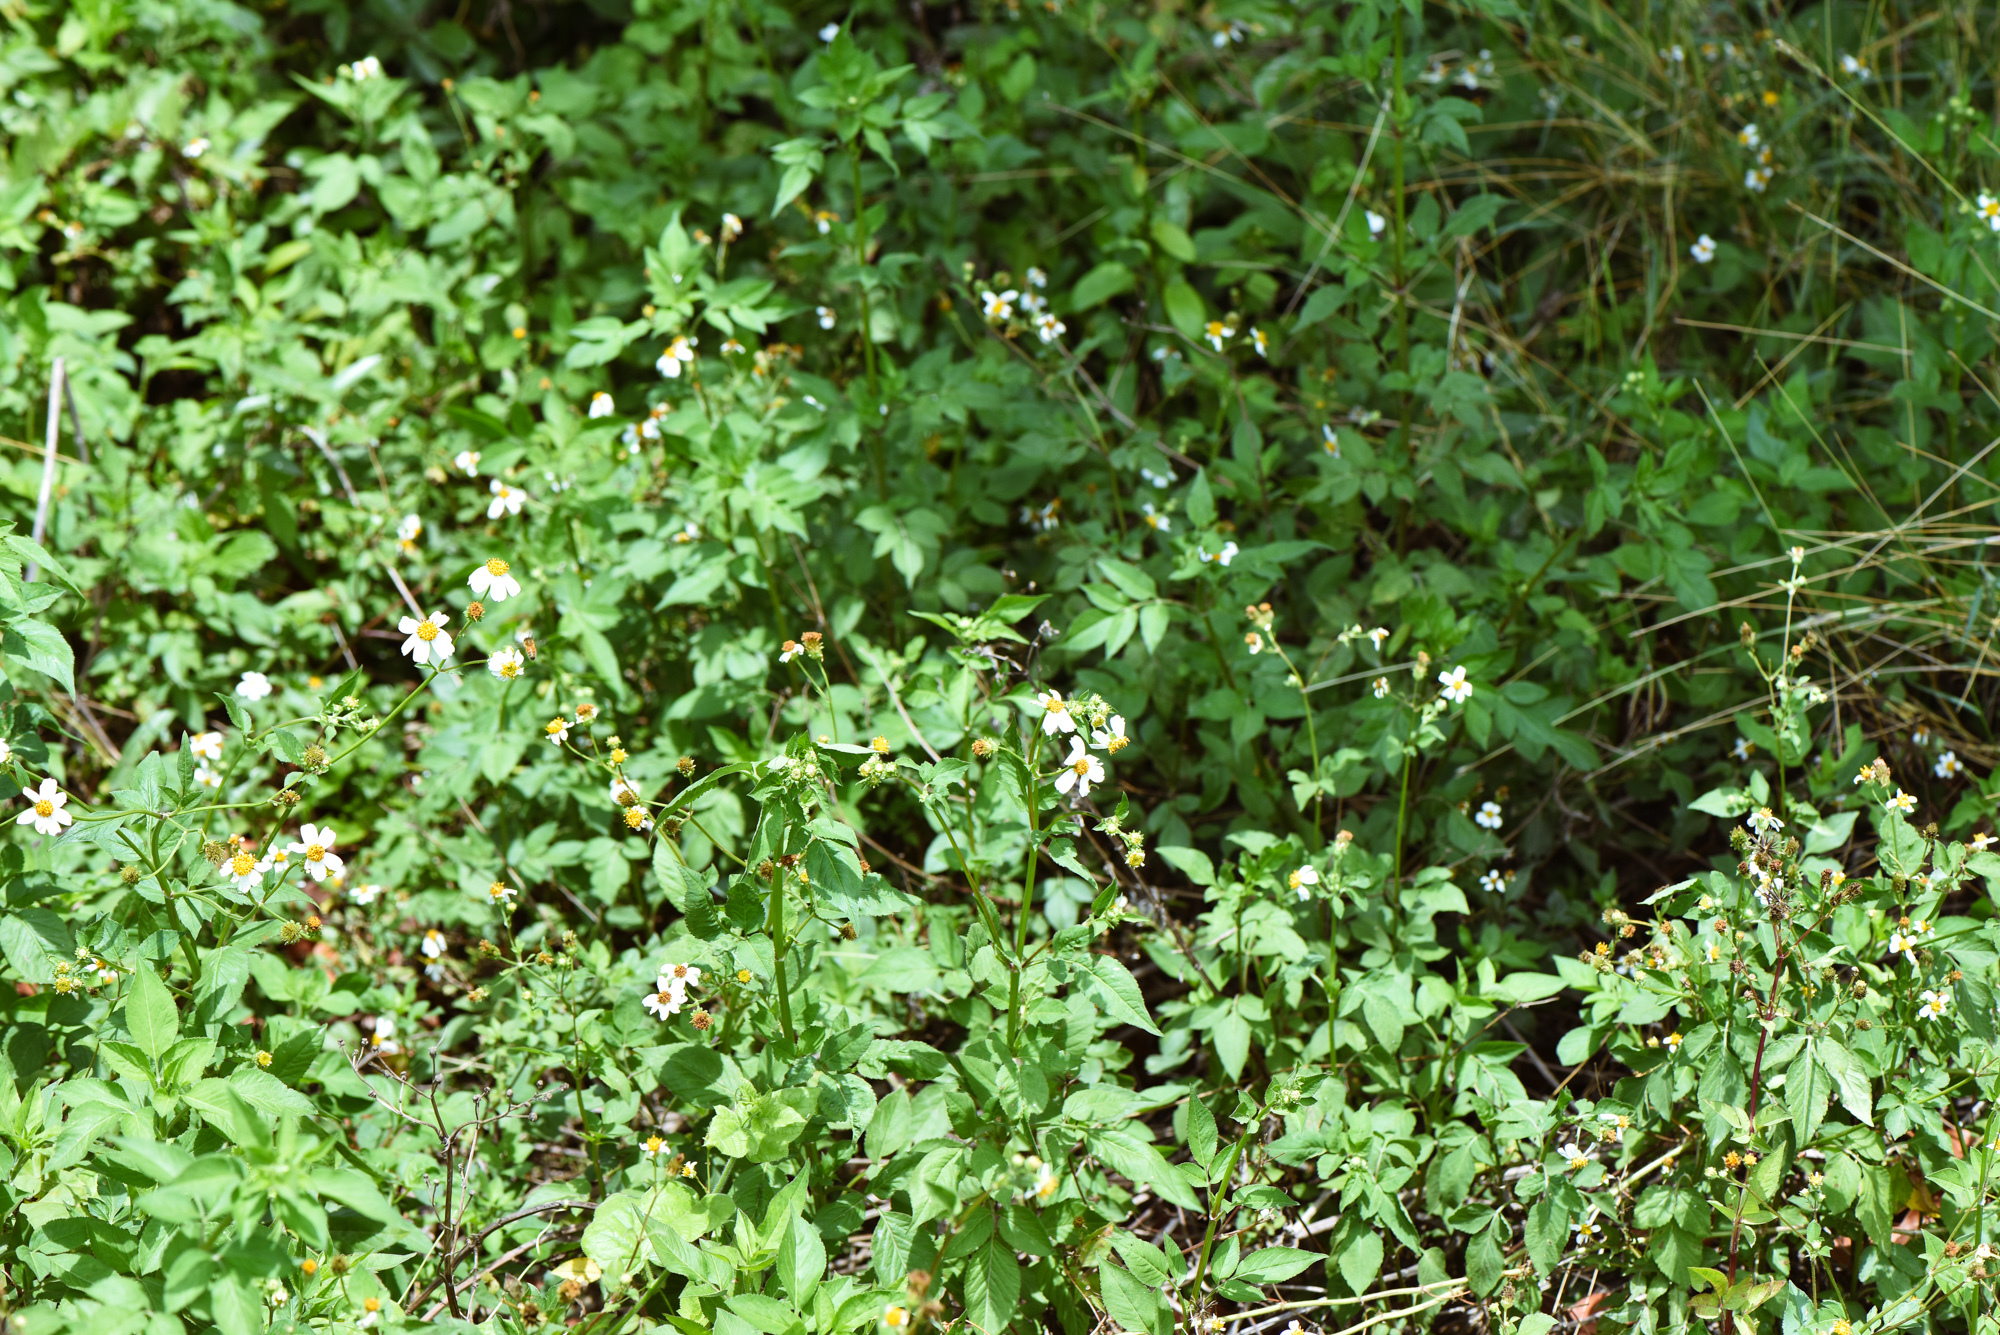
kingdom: Plantae
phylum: Tracheophyta
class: Magnoliopsida
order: Asterales
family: Asteraceae
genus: Bidens
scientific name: Bidens alba
